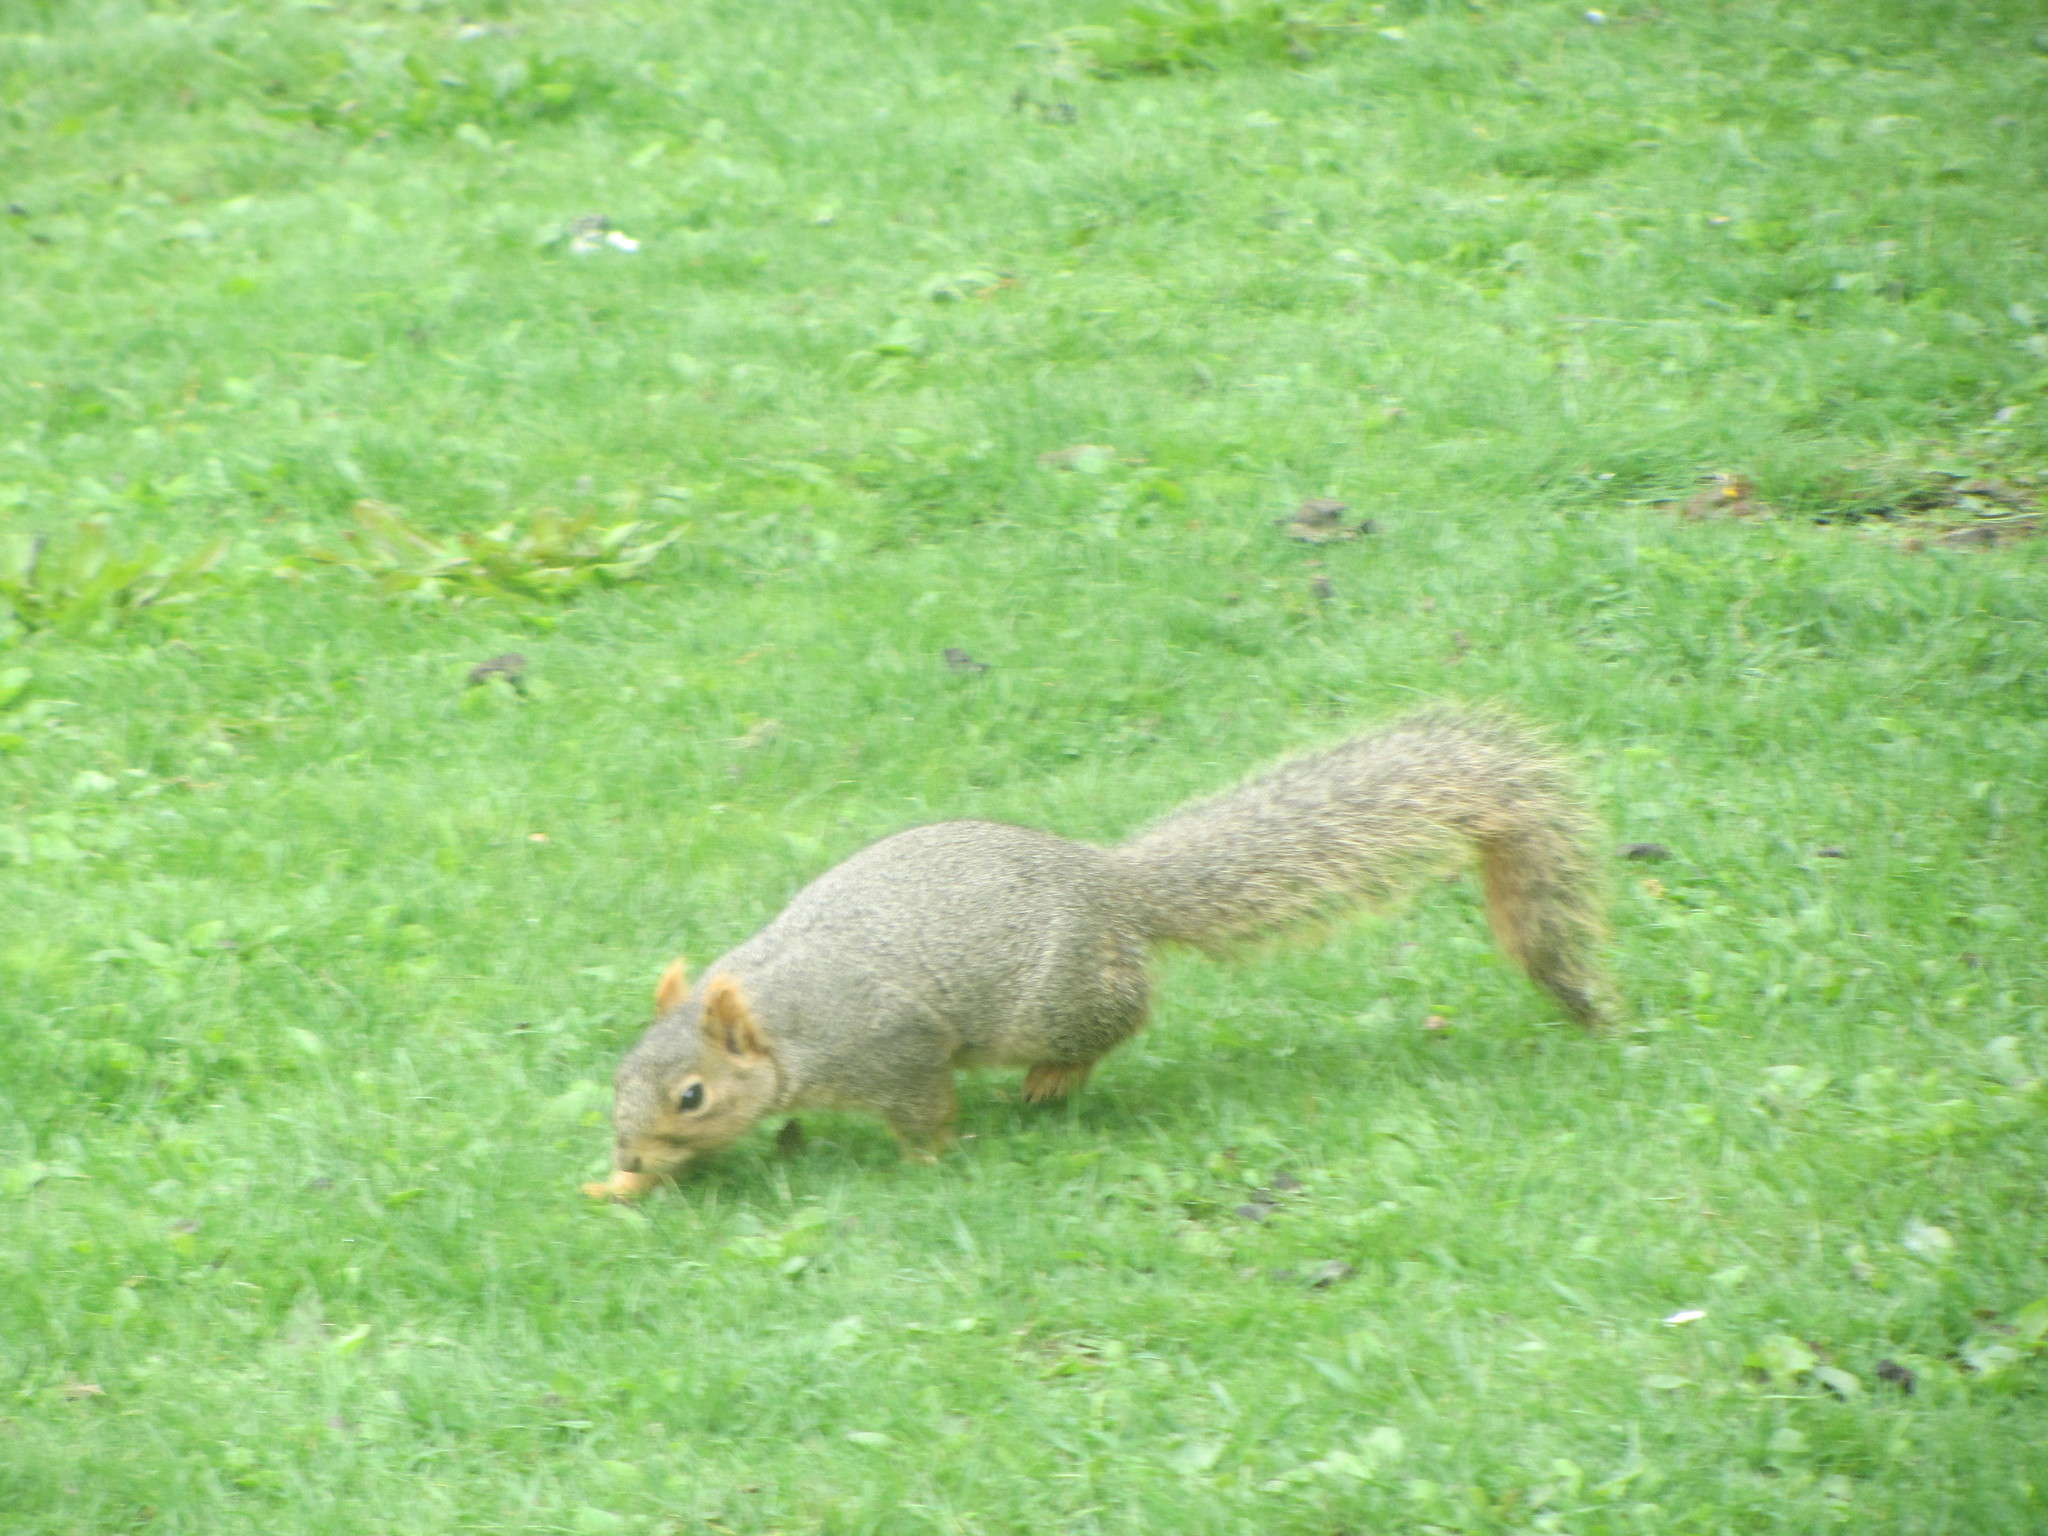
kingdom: Animalia
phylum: Chordata
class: Mammalia
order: Rodentia
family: Sciuridae
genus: Sciurus
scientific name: Sciurus niger
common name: Fox squirrel
